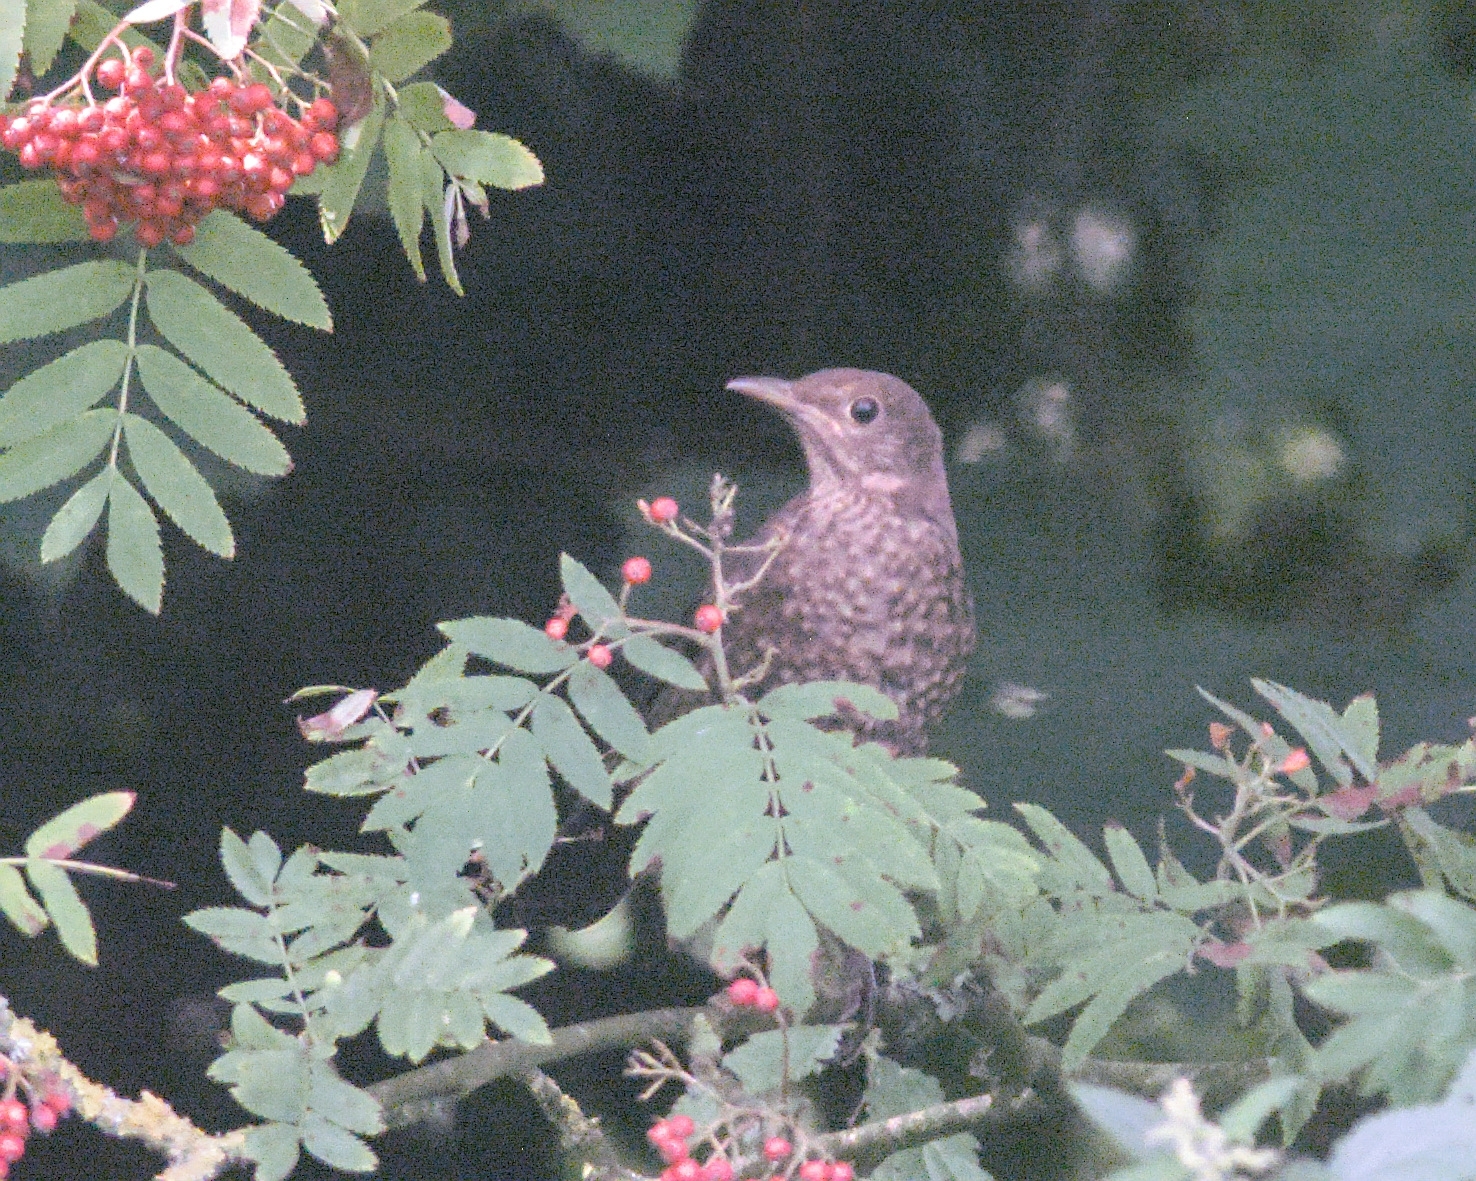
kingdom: Animalia
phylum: Chordata
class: Aves
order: Passeriformes
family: Turdidae
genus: Turdus
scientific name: Turdus merula
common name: Common blackbird
